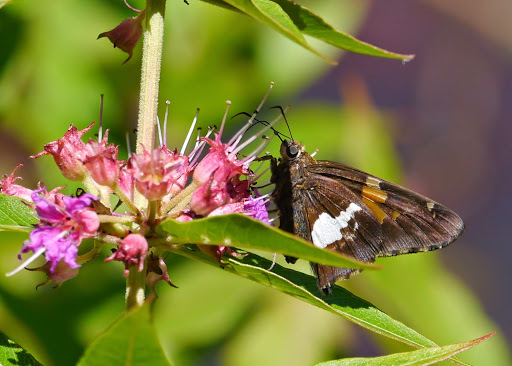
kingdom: Animalia
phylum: Arthropoda
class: Insecta
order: Lepidoptera
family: Hesperiidae
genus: Epargyreus
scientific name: Epargyreus clarus
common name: Silver-spotted skipper
